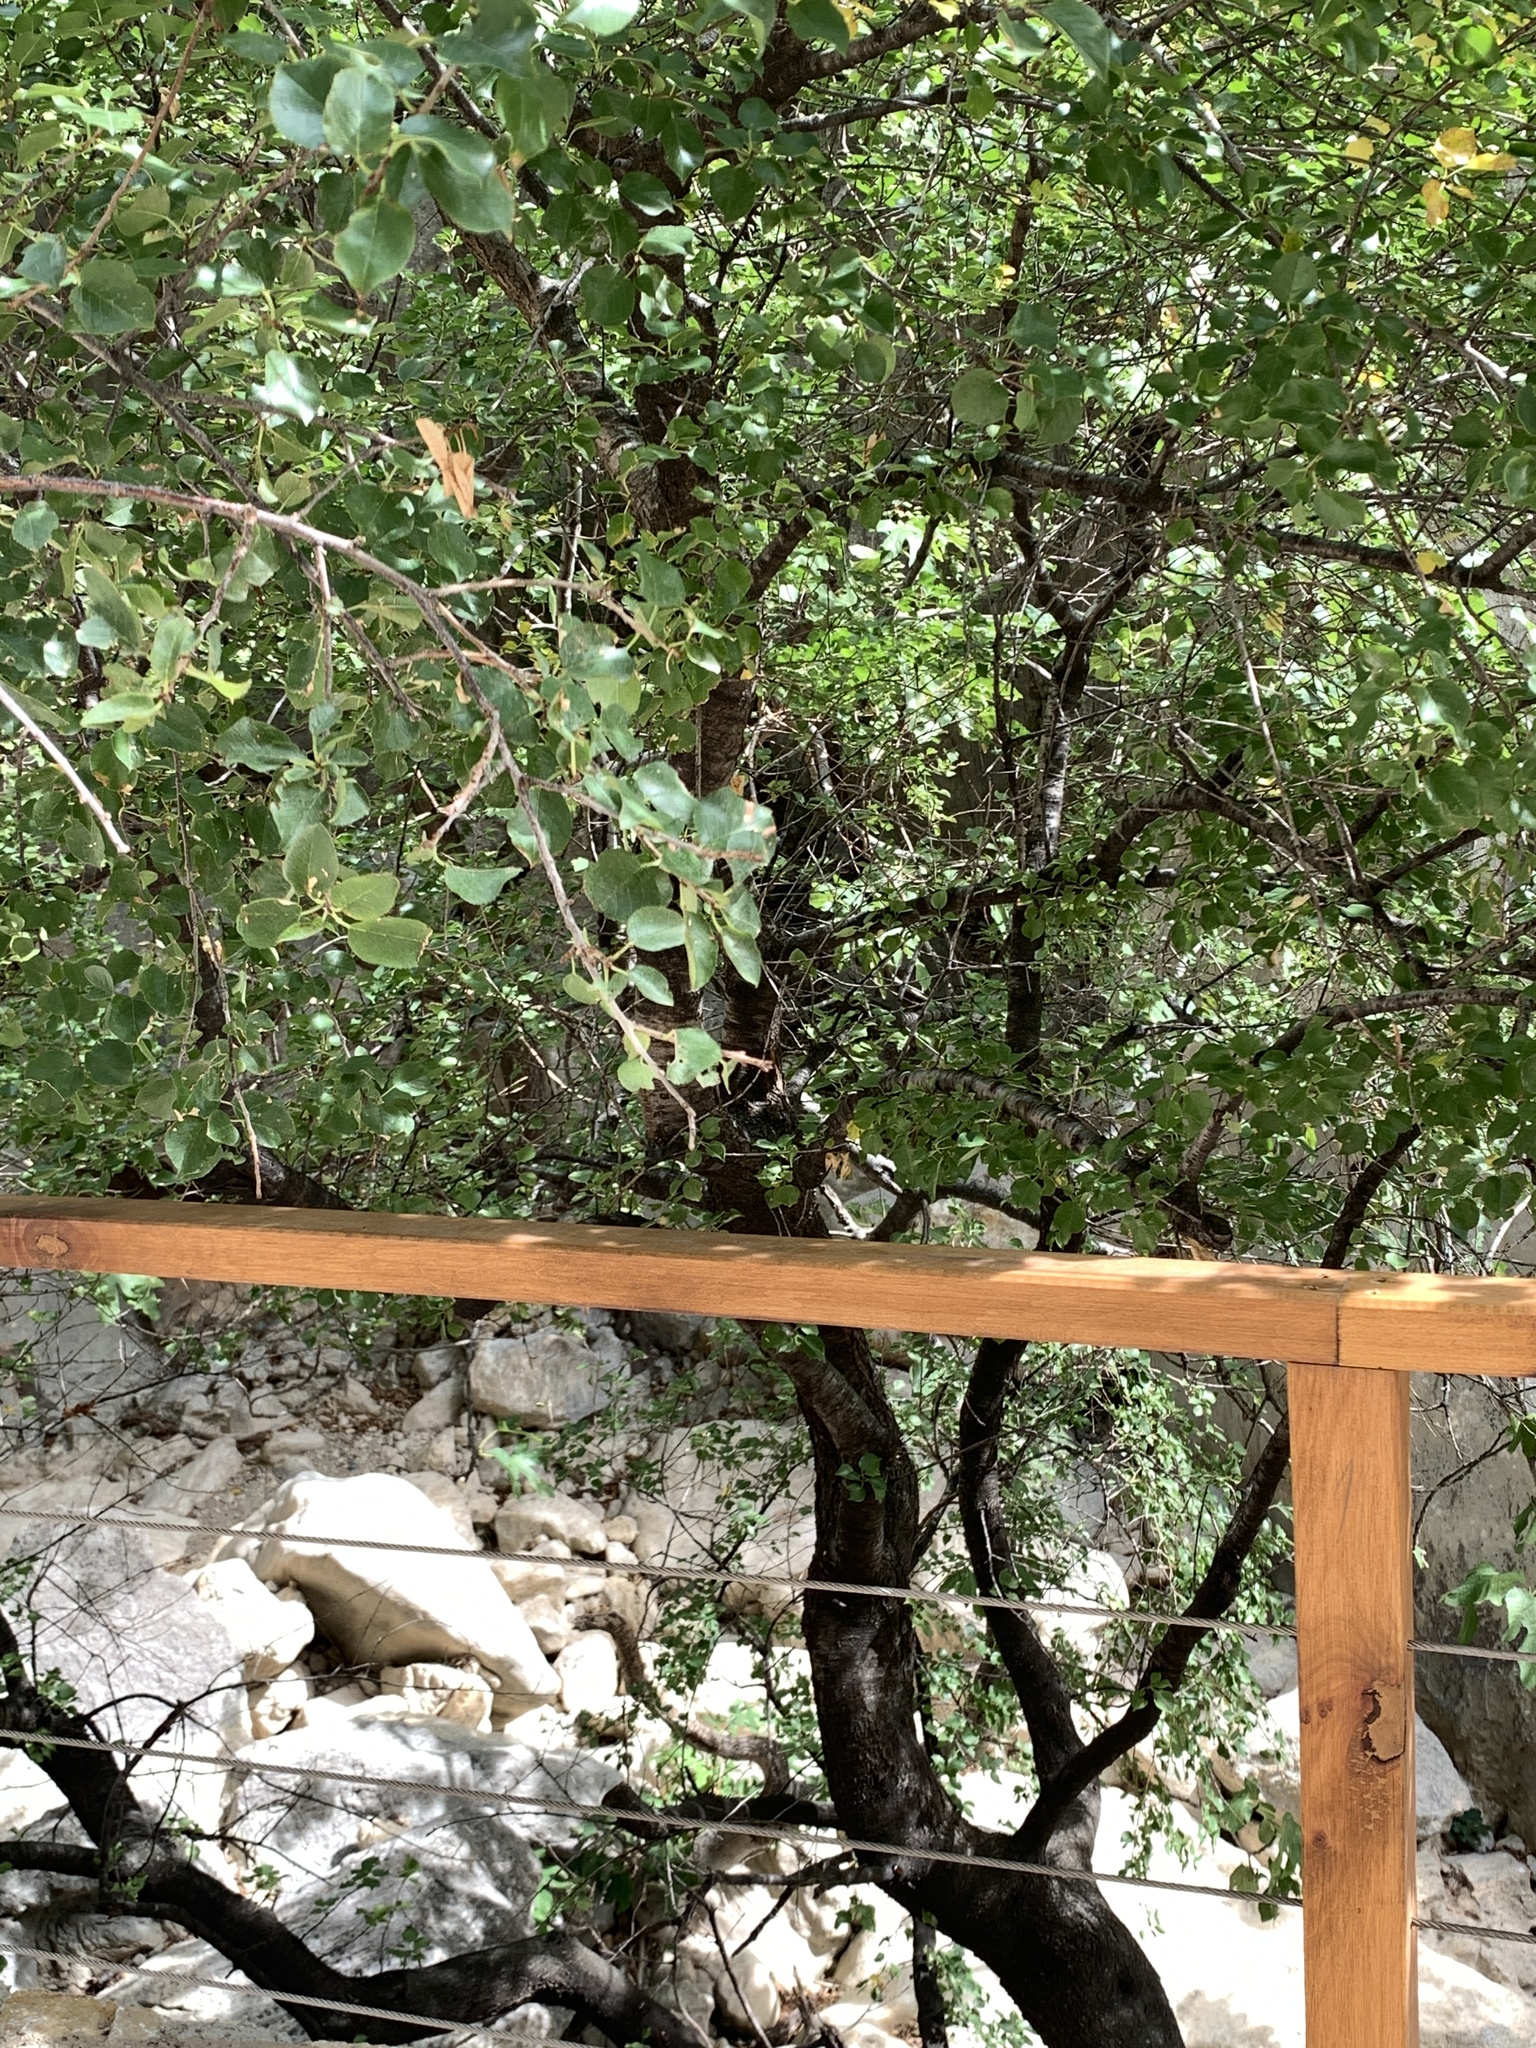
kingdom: Plantae
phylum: Tracheophyta
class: Magnoliopsida
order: Rosales
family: Rosaceae
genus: Prunus
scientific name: Prunus mahaleb
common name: Mahaleb cherry
